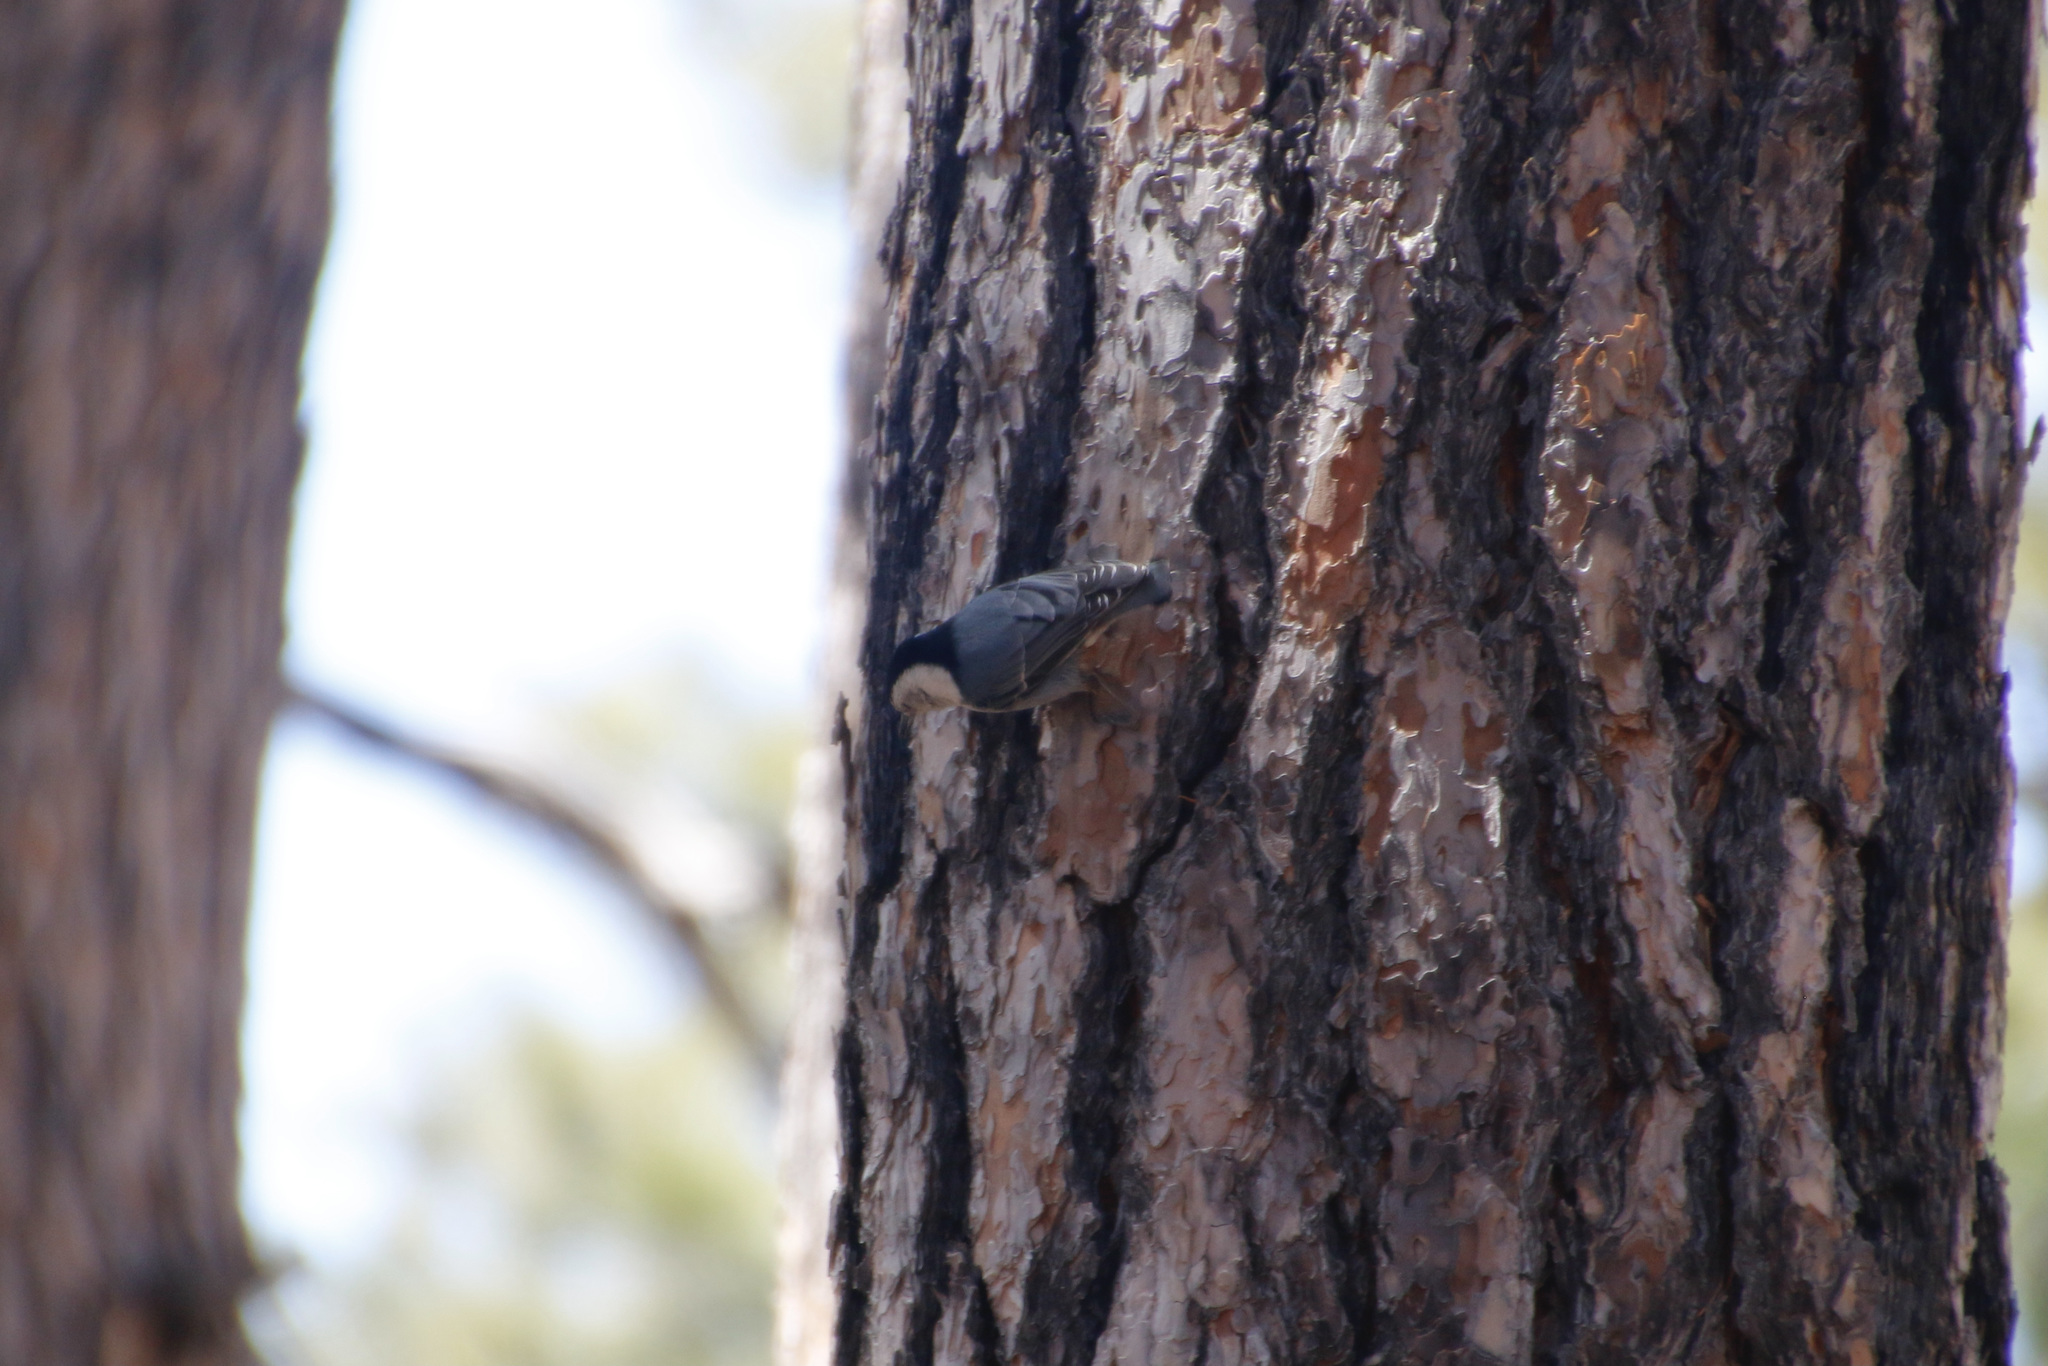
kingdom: Animalia
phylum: Chordata
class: Aves
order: Passeriformes
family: Sittidae
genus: Sitta
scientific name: Sitta carolinensis
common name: White-breasted nuthatch
